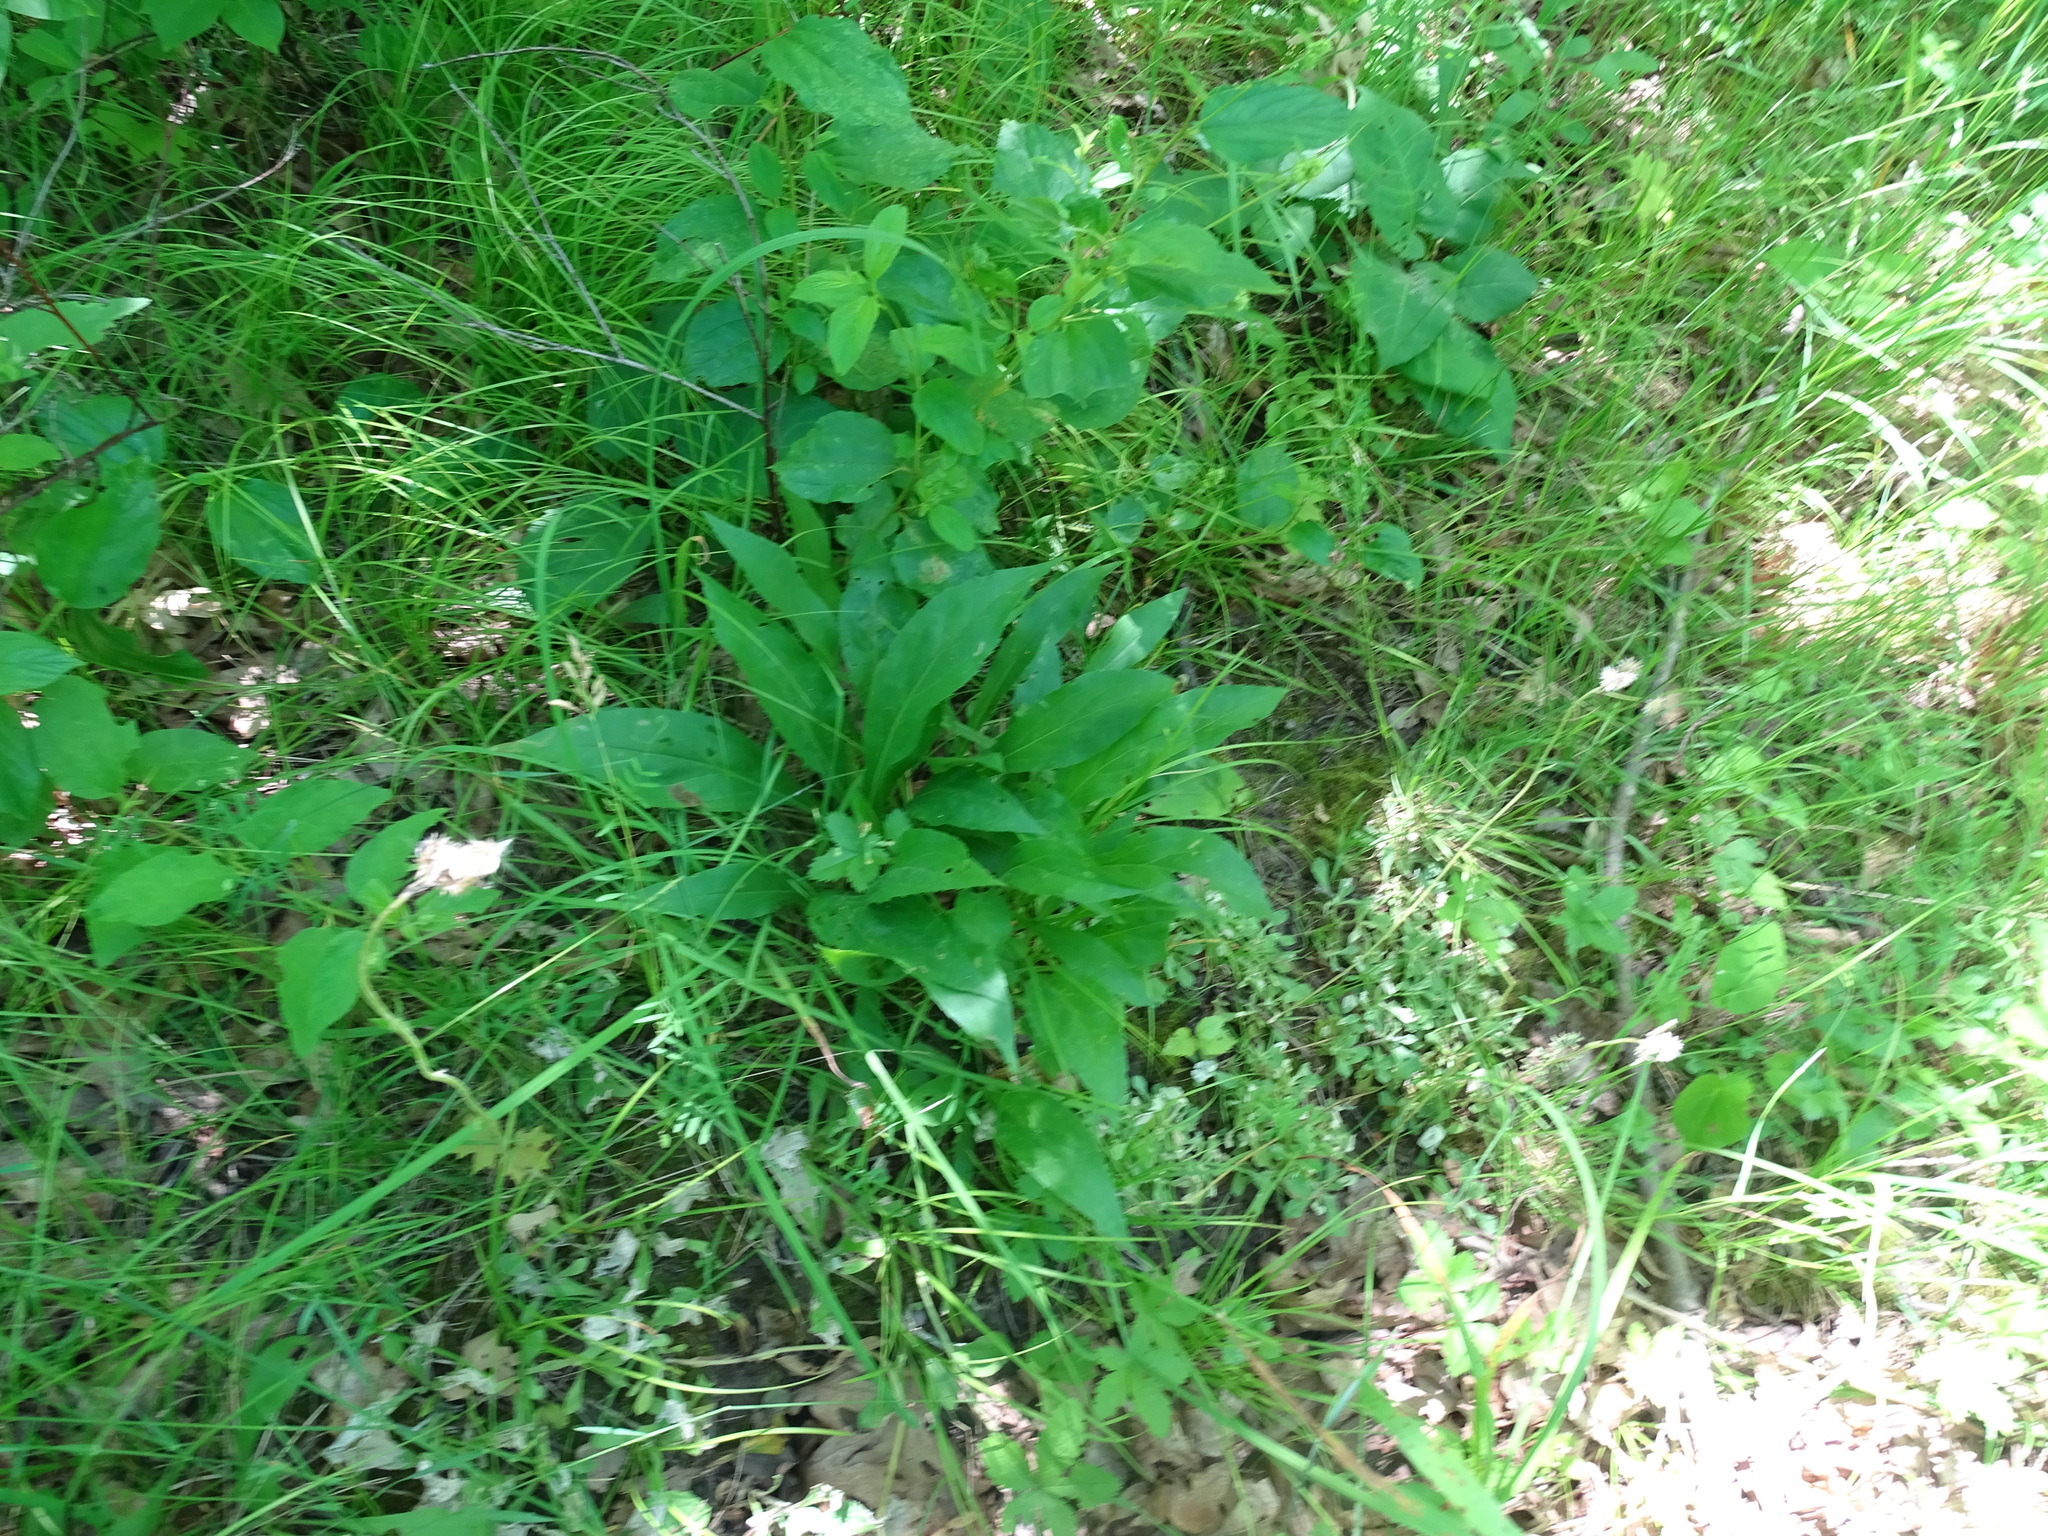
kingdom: Plantae
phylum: Tracheophyta
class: Magnoliopsida
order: Asterales
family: Asteraceae
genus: Solidago
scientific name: Solidago juncea
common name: Early goldenrod
